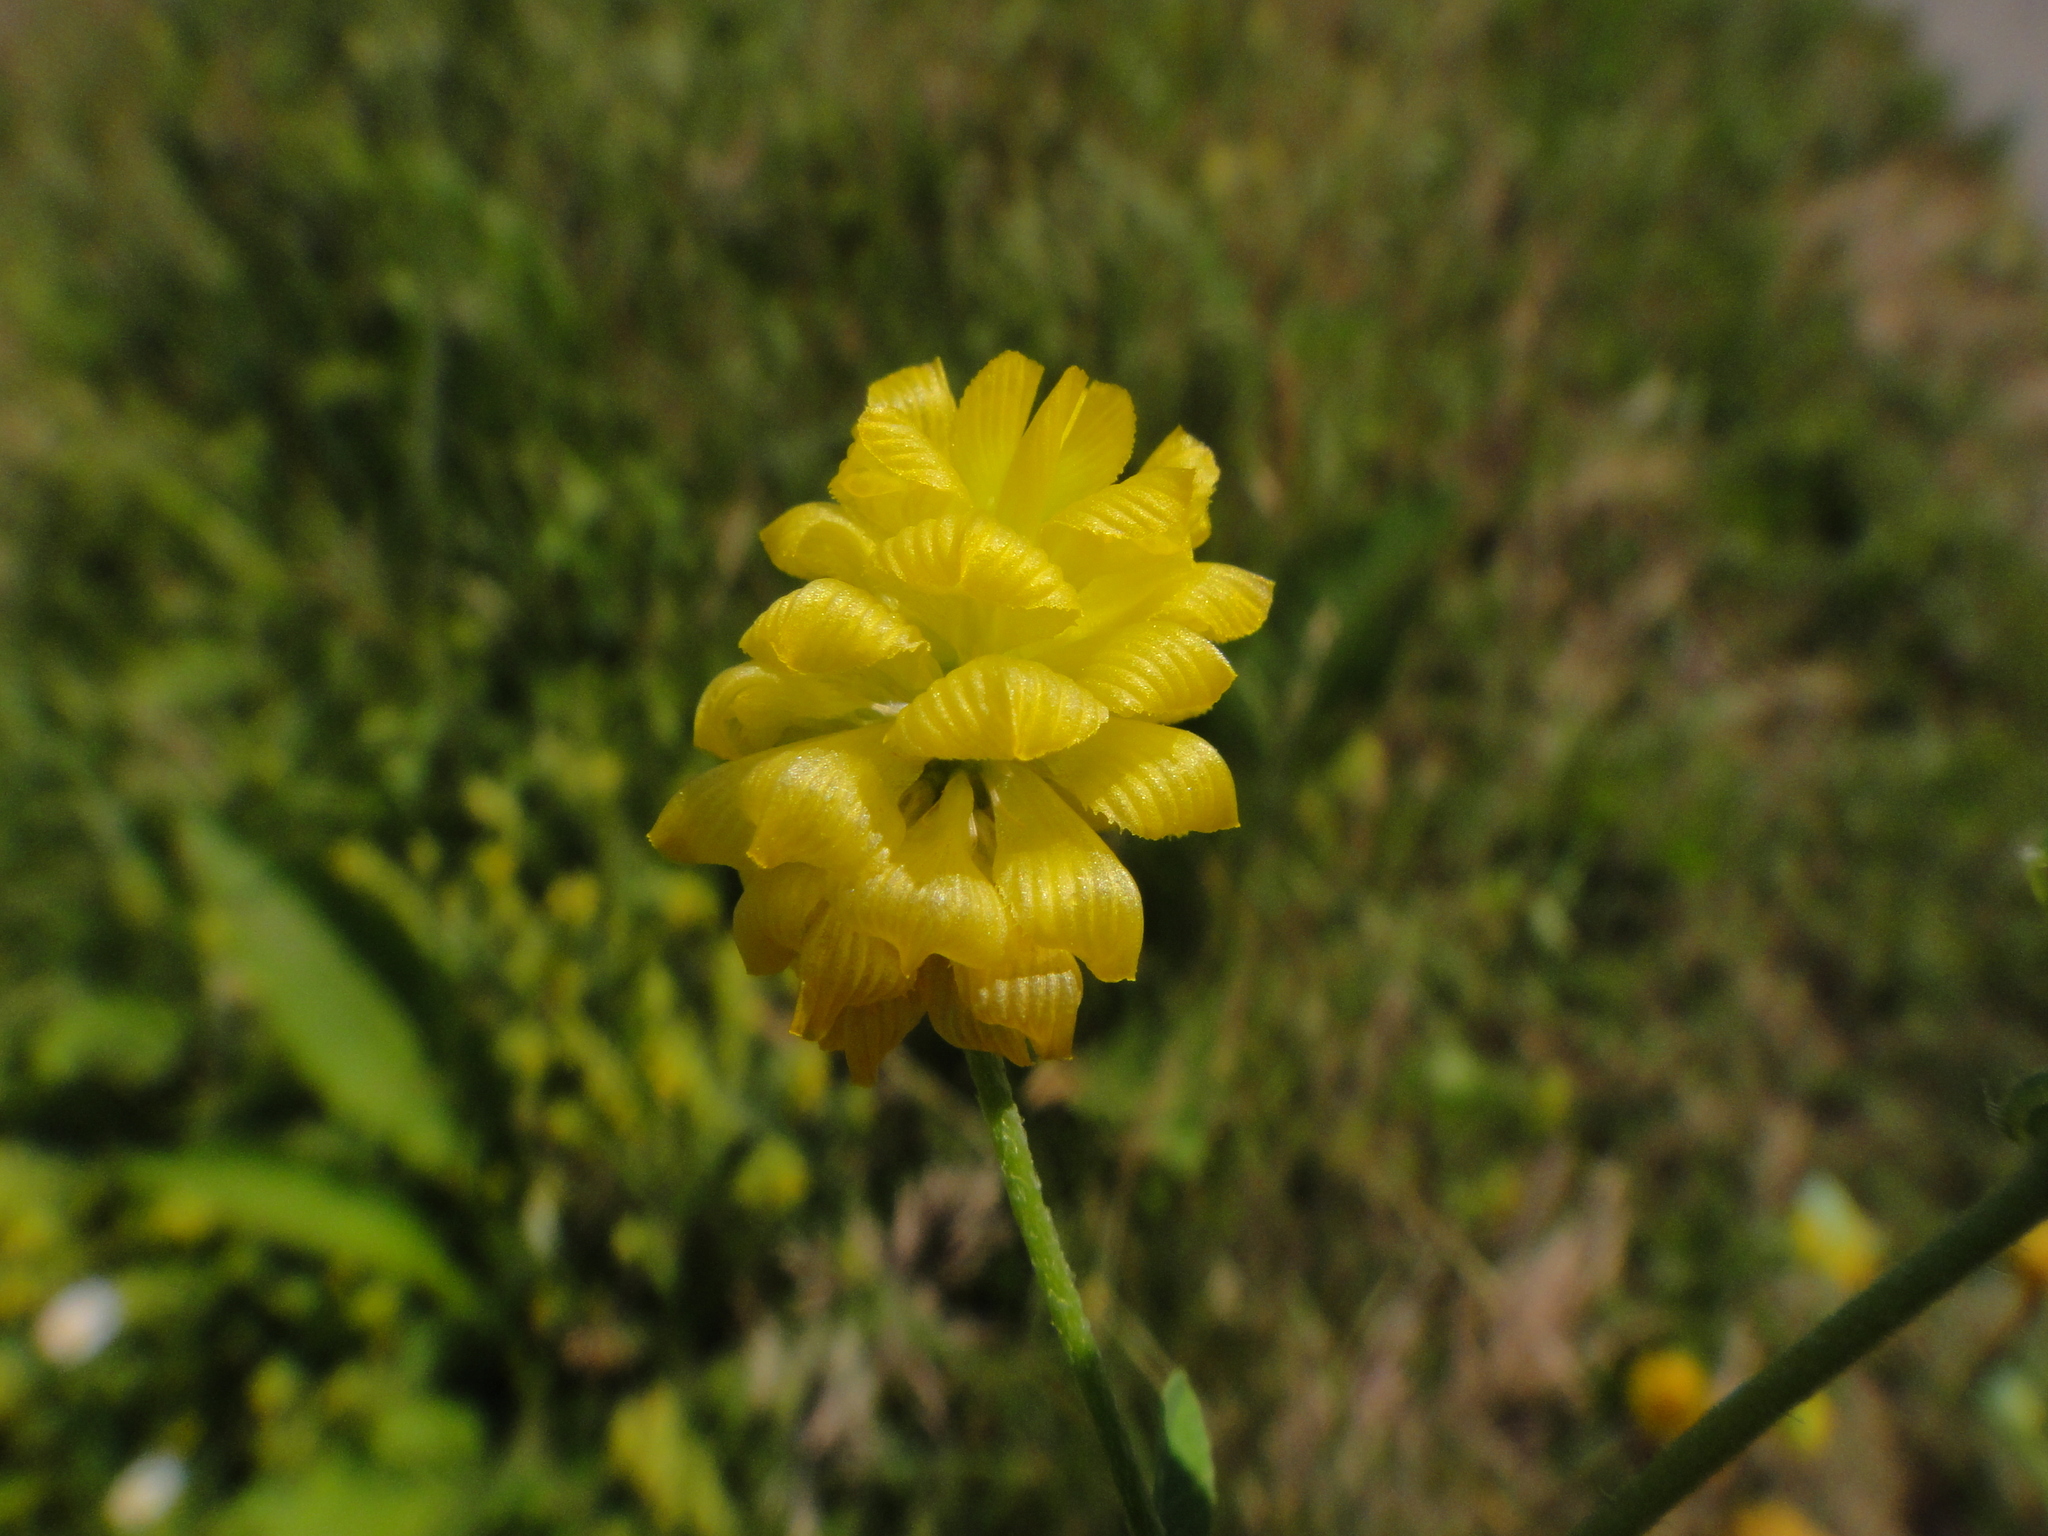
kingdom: Plantae
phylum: Tracheophyta
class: Magnoliopsida
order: Fabales
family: Fabaceae
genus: Trifolium
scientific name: Trifolium campestre
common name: Field clover
